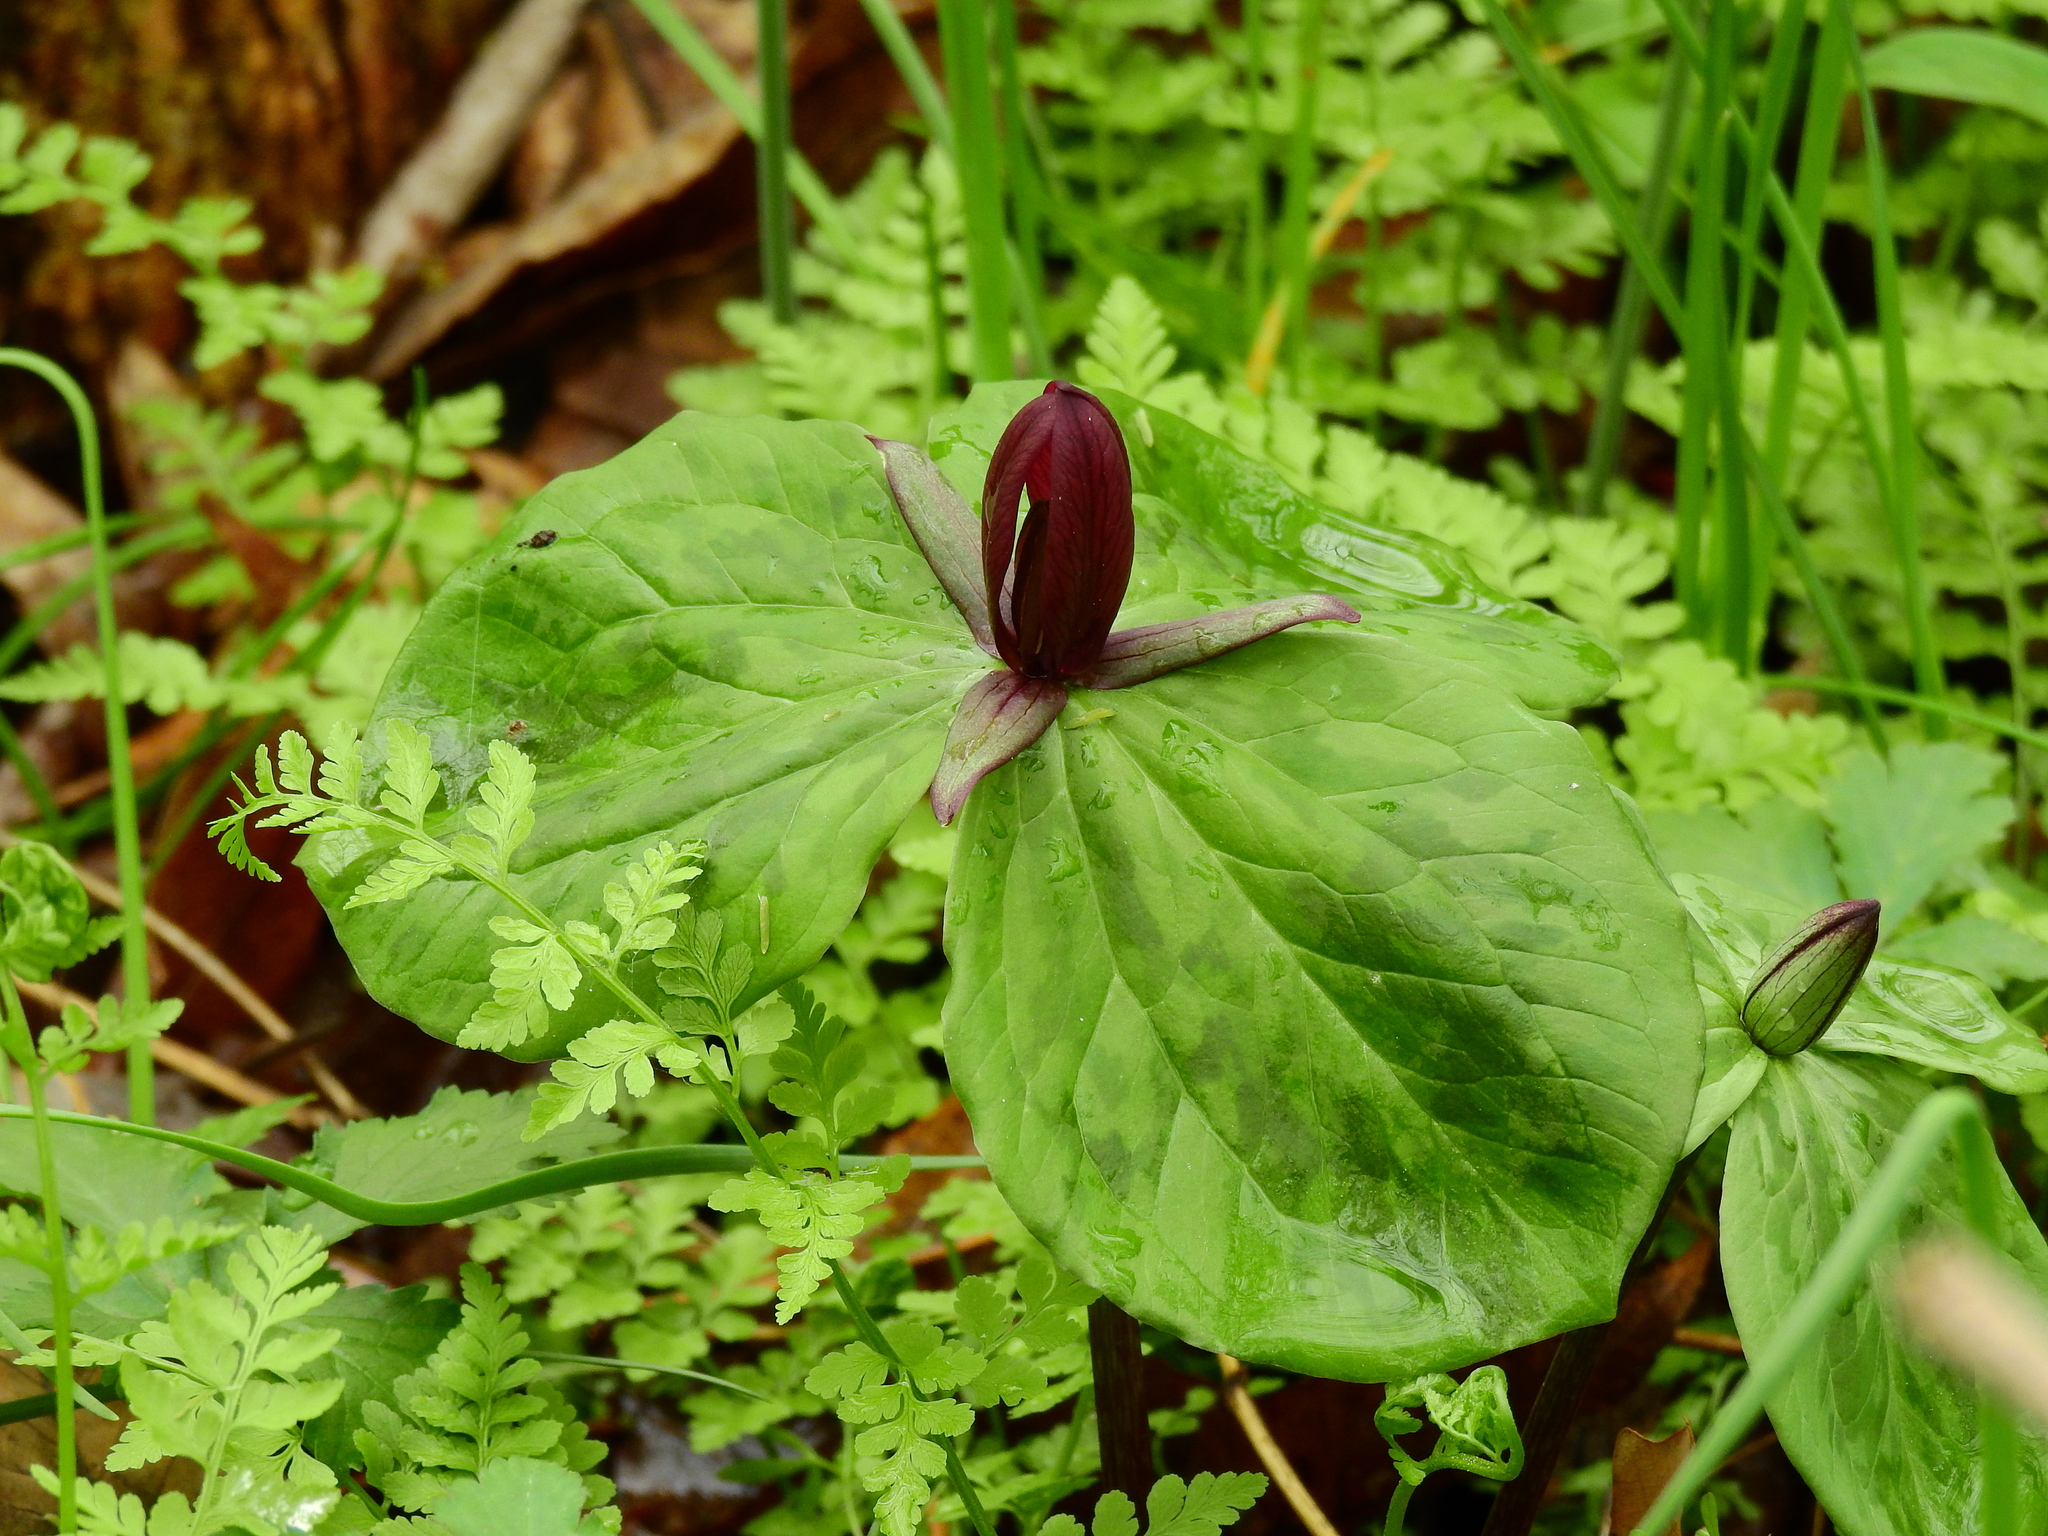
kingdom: Plantae
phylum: Tracheophyta
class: Liliopsida
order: Liliales
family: Melanthiaceae
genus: Trillium
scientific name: Trillium sessile
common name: Sessile trillium
